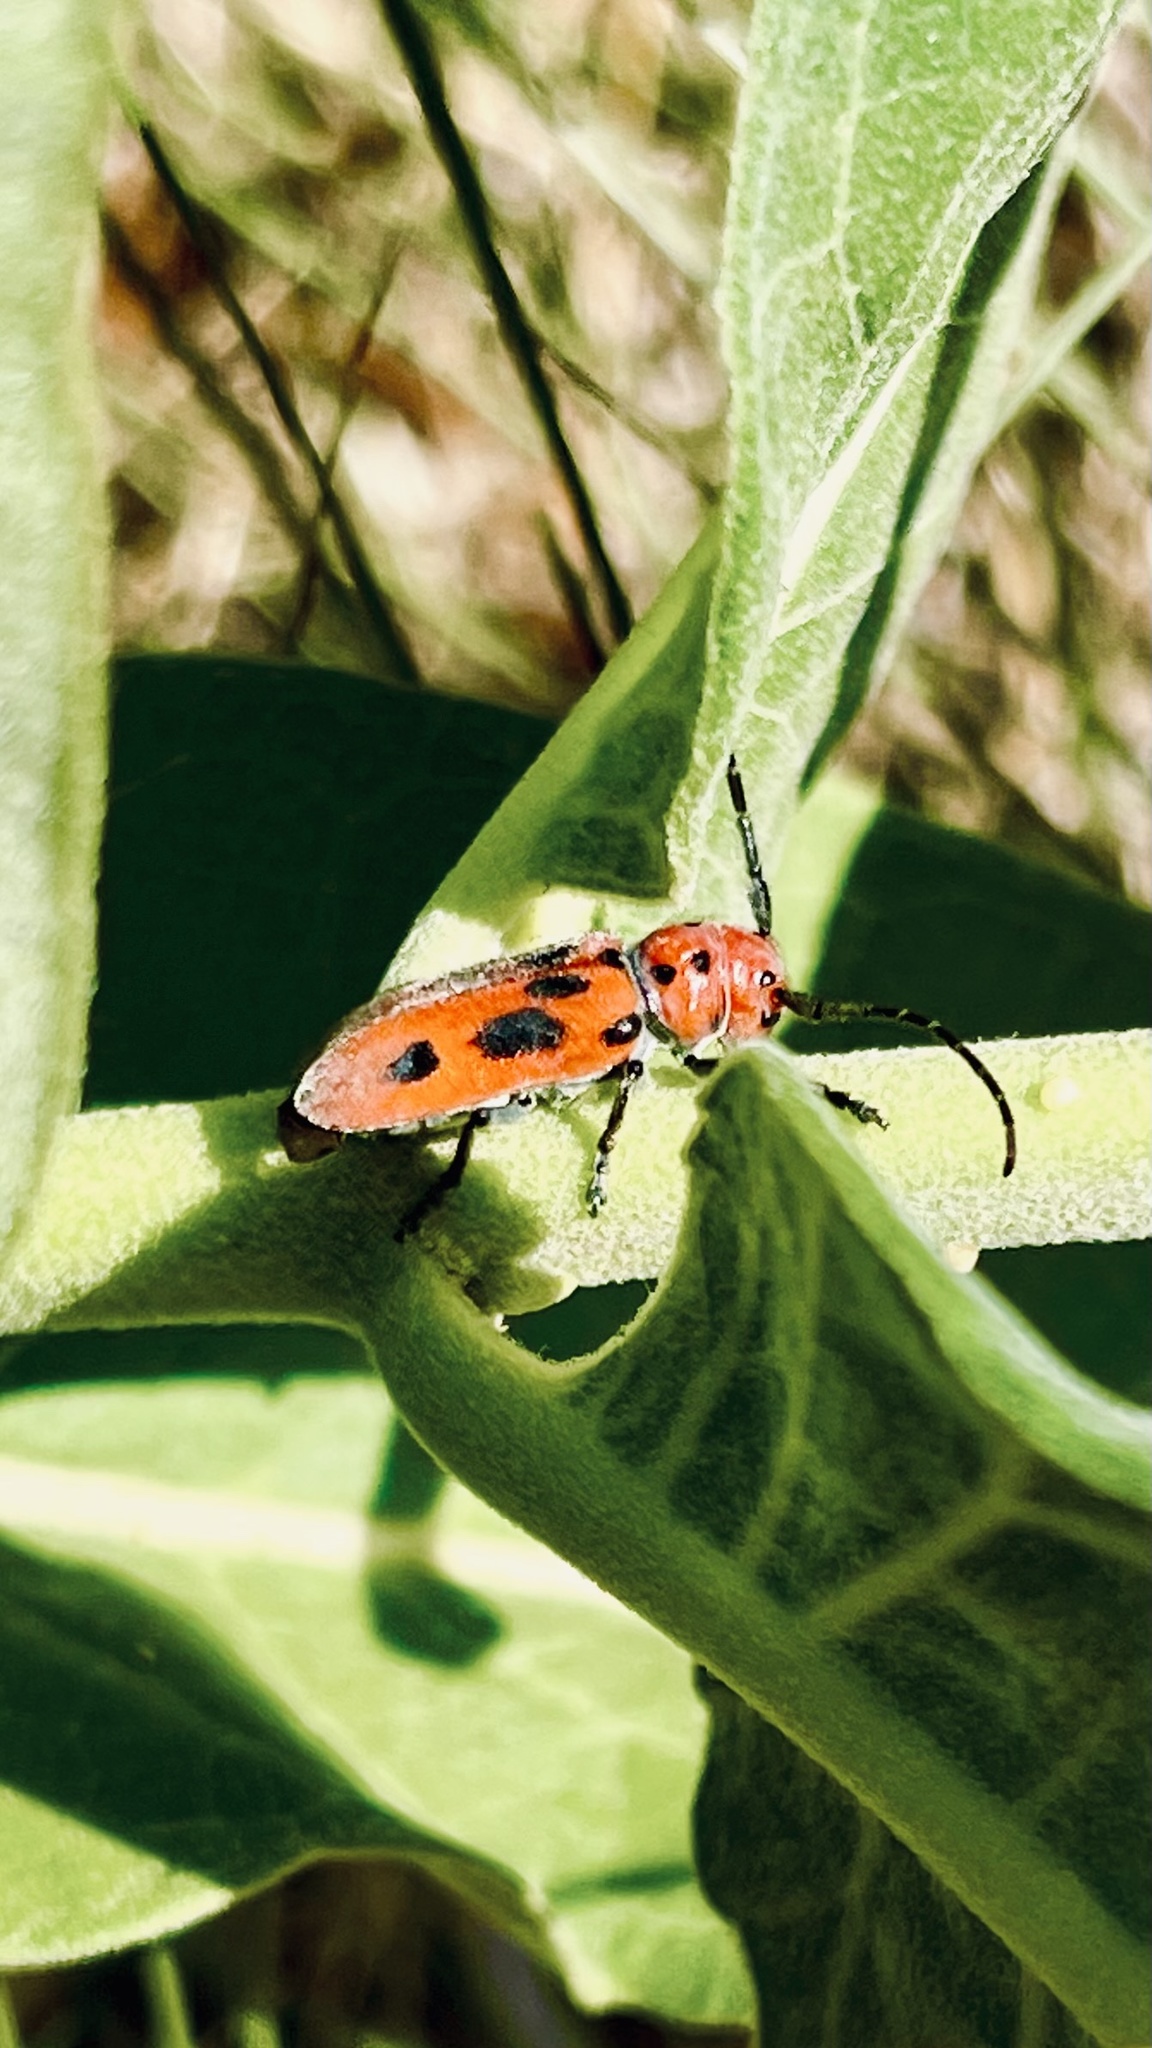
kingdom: Animalia
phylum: Arthropoda
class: Insecta
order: Coleoptera
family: Cerambycidae
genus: Tetraopes
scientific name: Tetraopes tetrophthalmus
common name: Red milkweed beetle
